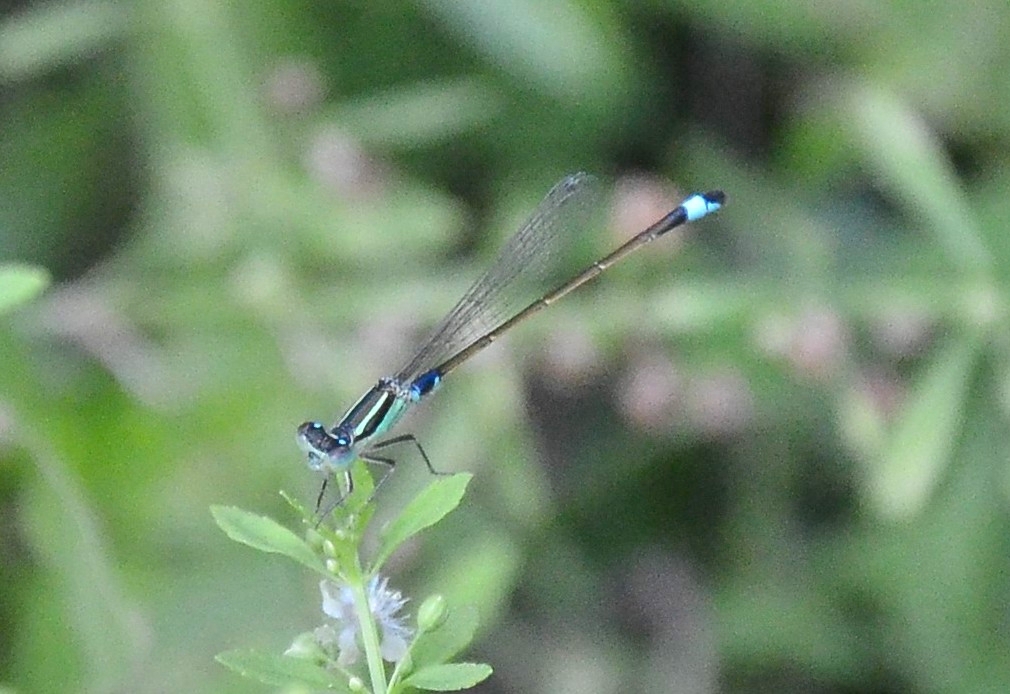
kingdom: Animalia
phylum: Arthropoda
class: Insecta
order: Odonata
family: Coenagrionidae
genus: Ischnura
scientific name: Ischnura senegalensis
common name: Tropical bluetail
